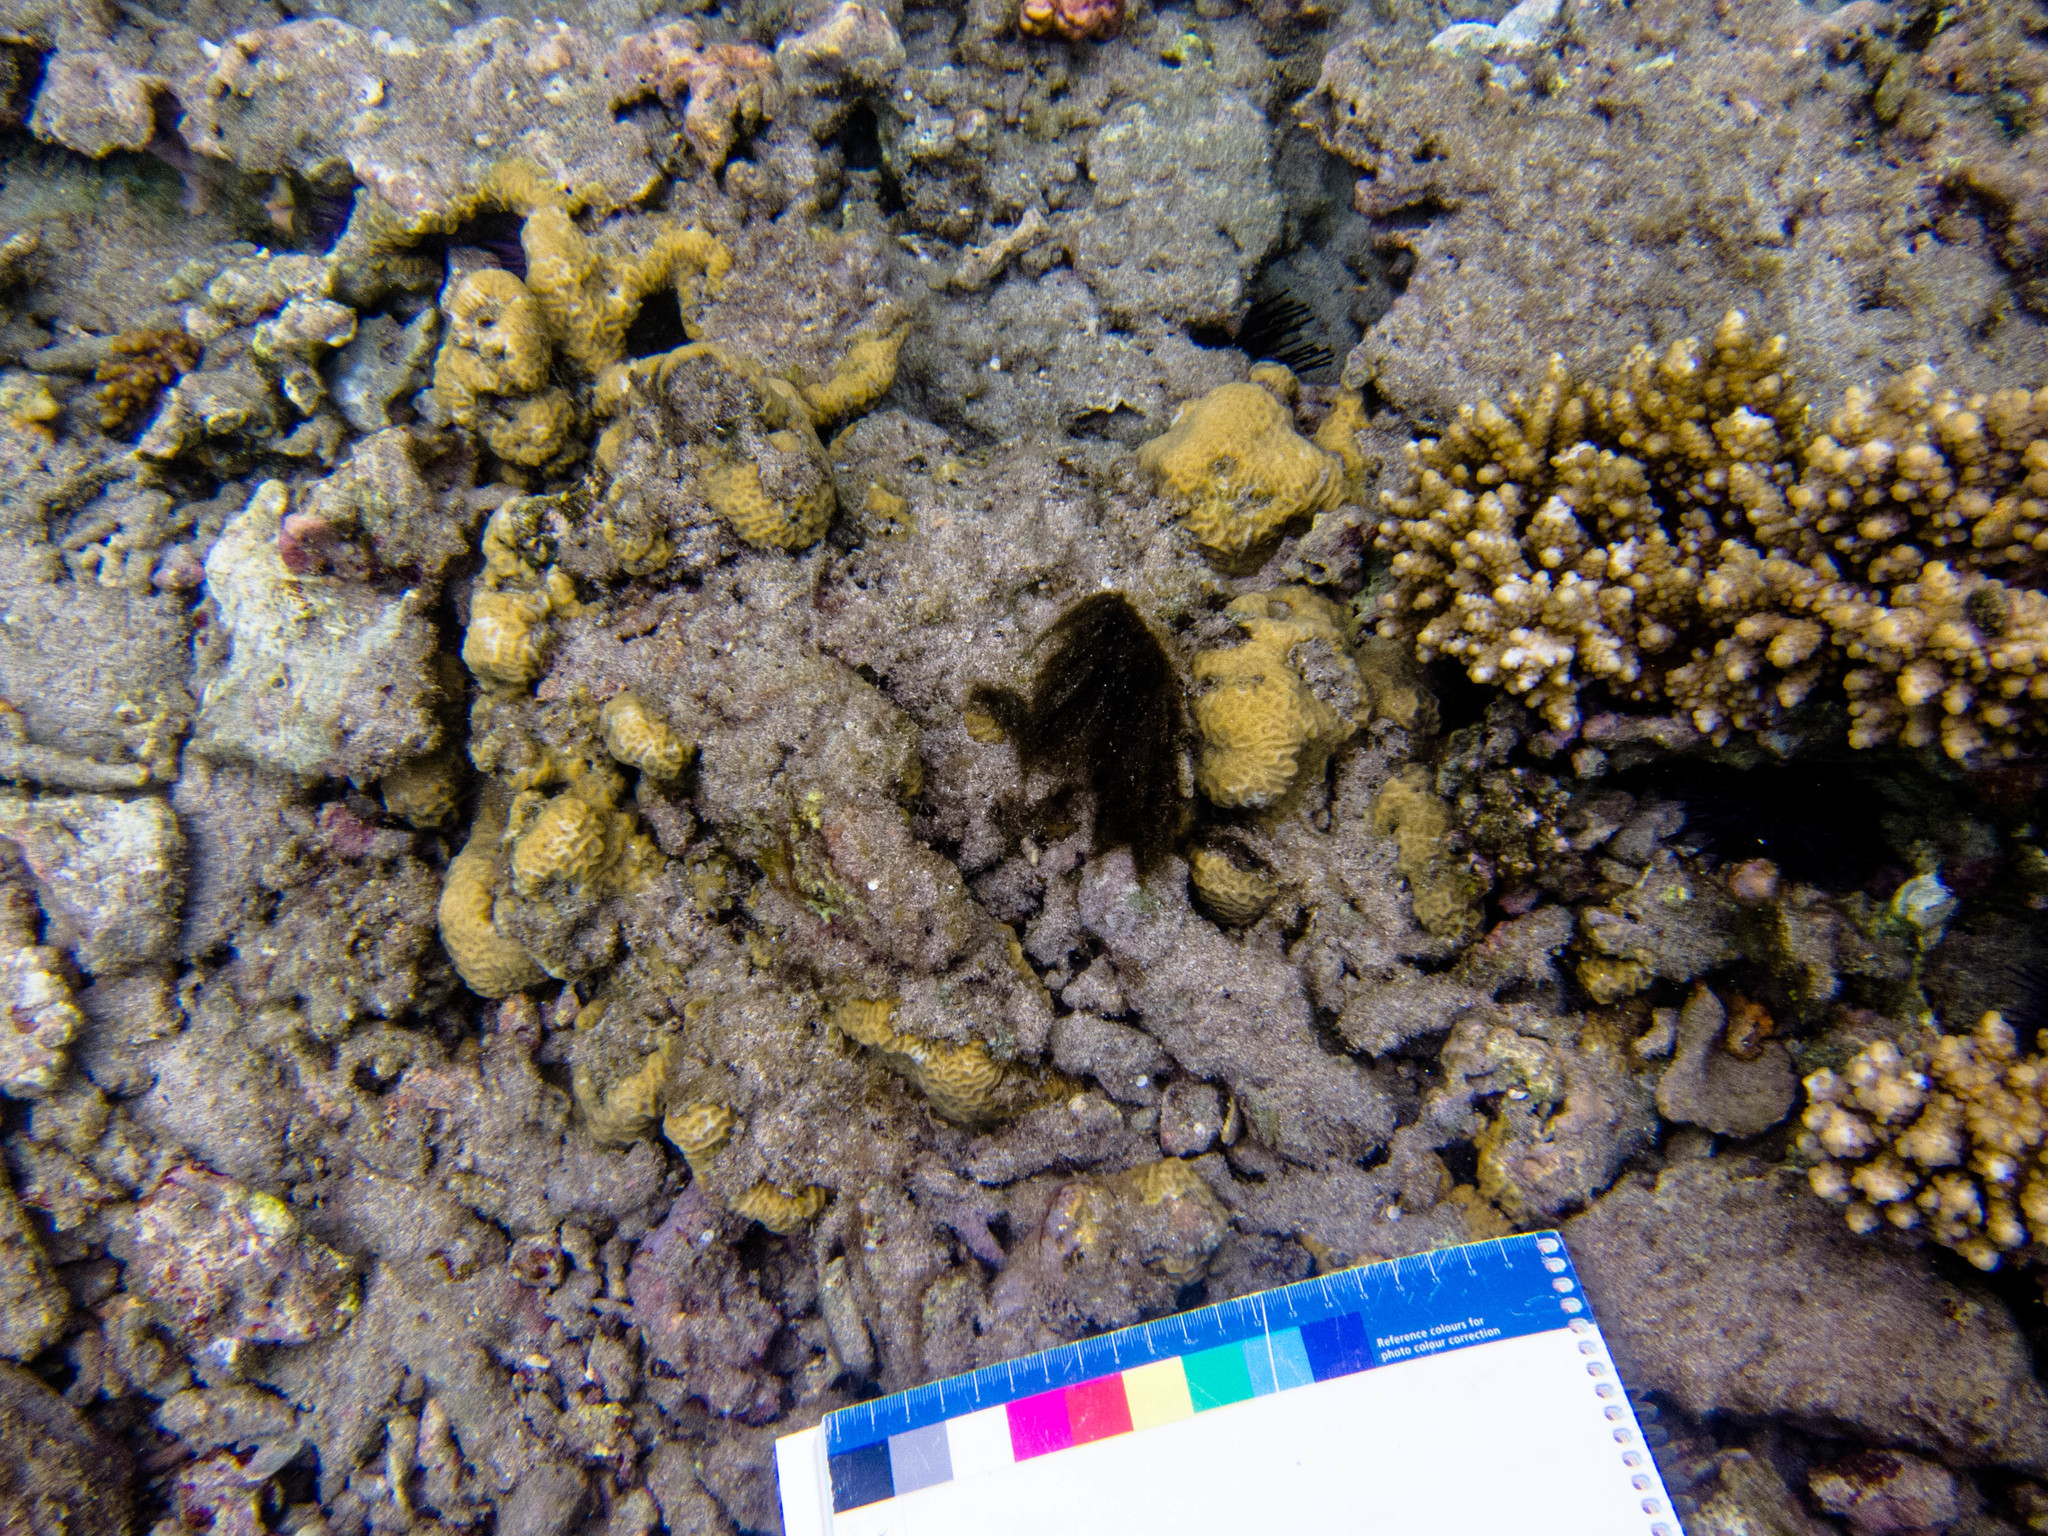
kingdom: Animalia
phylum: Cnidaria
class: Anthozoa
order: Scleractinia
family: Agariciidae
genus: Pavona
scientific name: Pavona venosa
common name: Leaf coral
